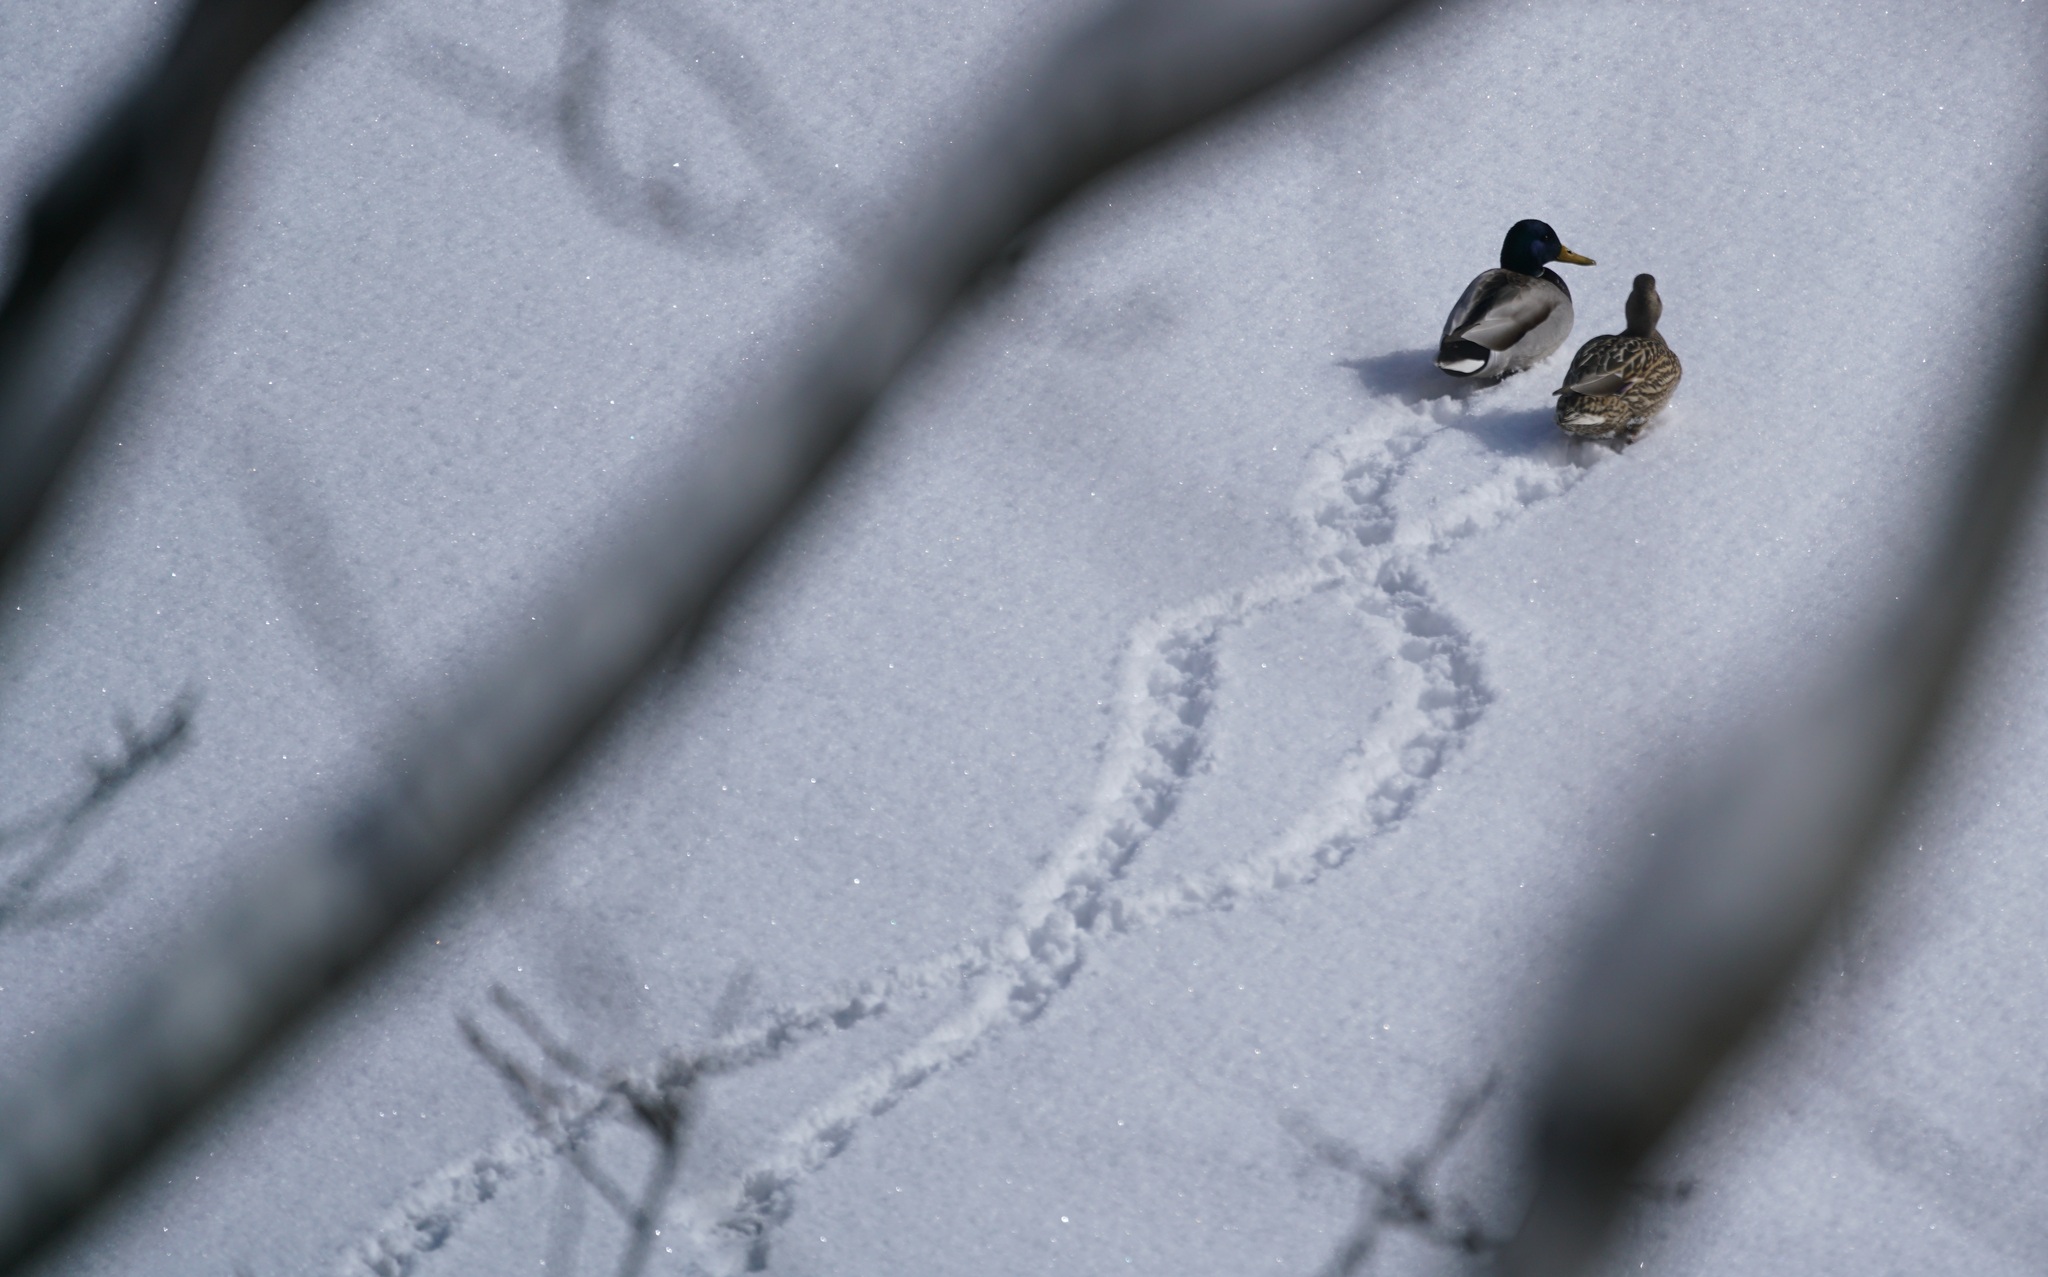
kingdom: Animalia
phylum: Chordata
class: Aves
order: Anseriformes
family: Anatidae
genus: Anas
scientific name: Anas platyrhynchos
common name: Mallard
